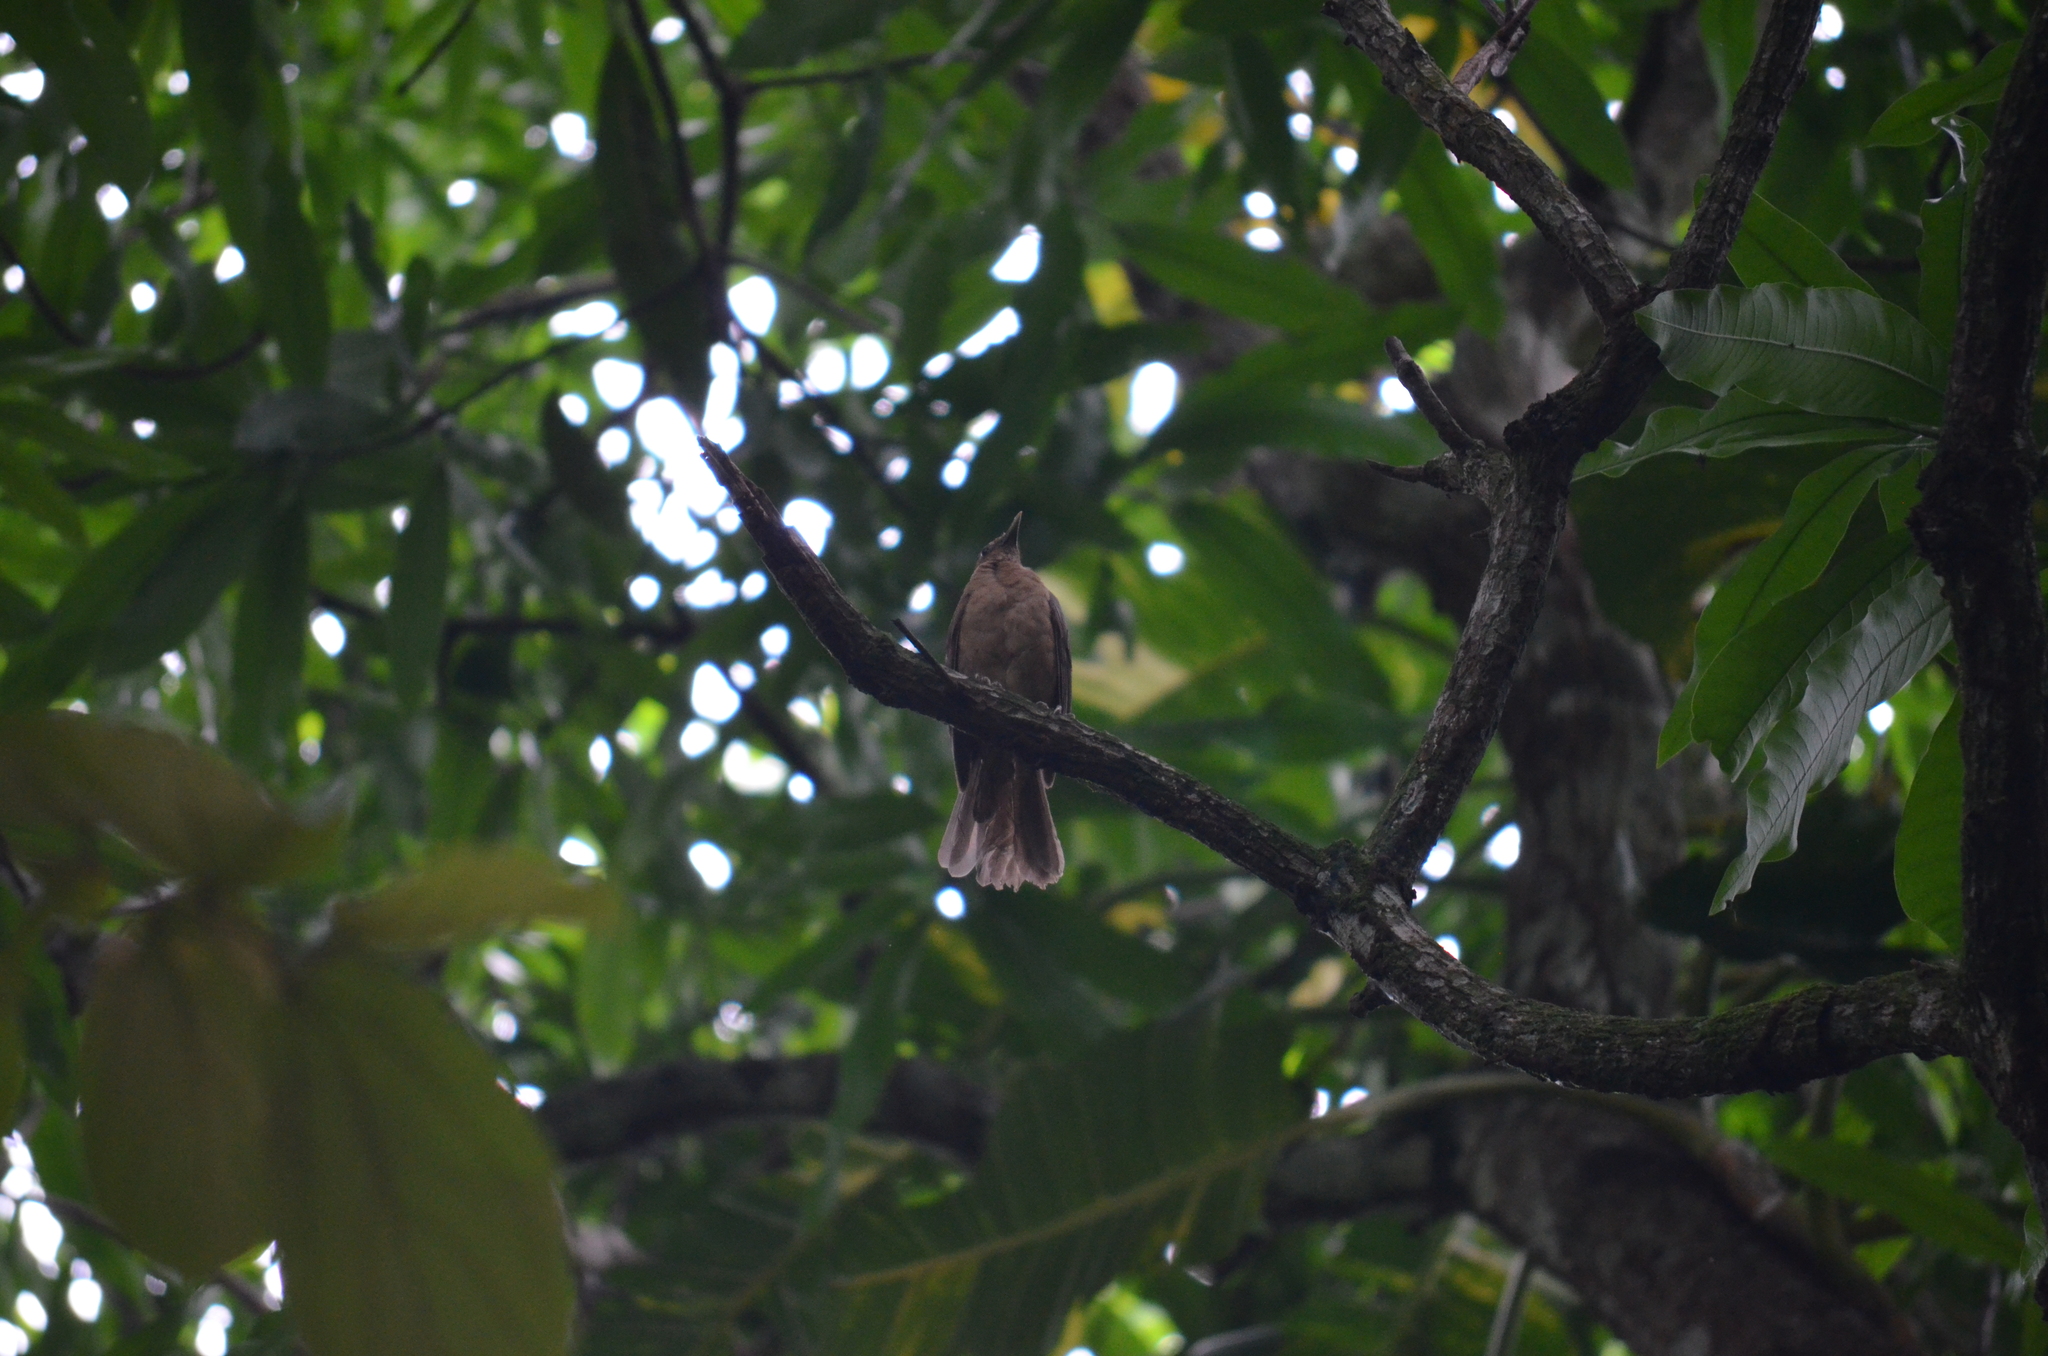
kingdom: Animalia
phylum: Chordata
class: Aves
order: Passeriformes
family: Turdidae
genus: Turdus
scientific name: Turdus grayi
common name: Clay-colored thrush
